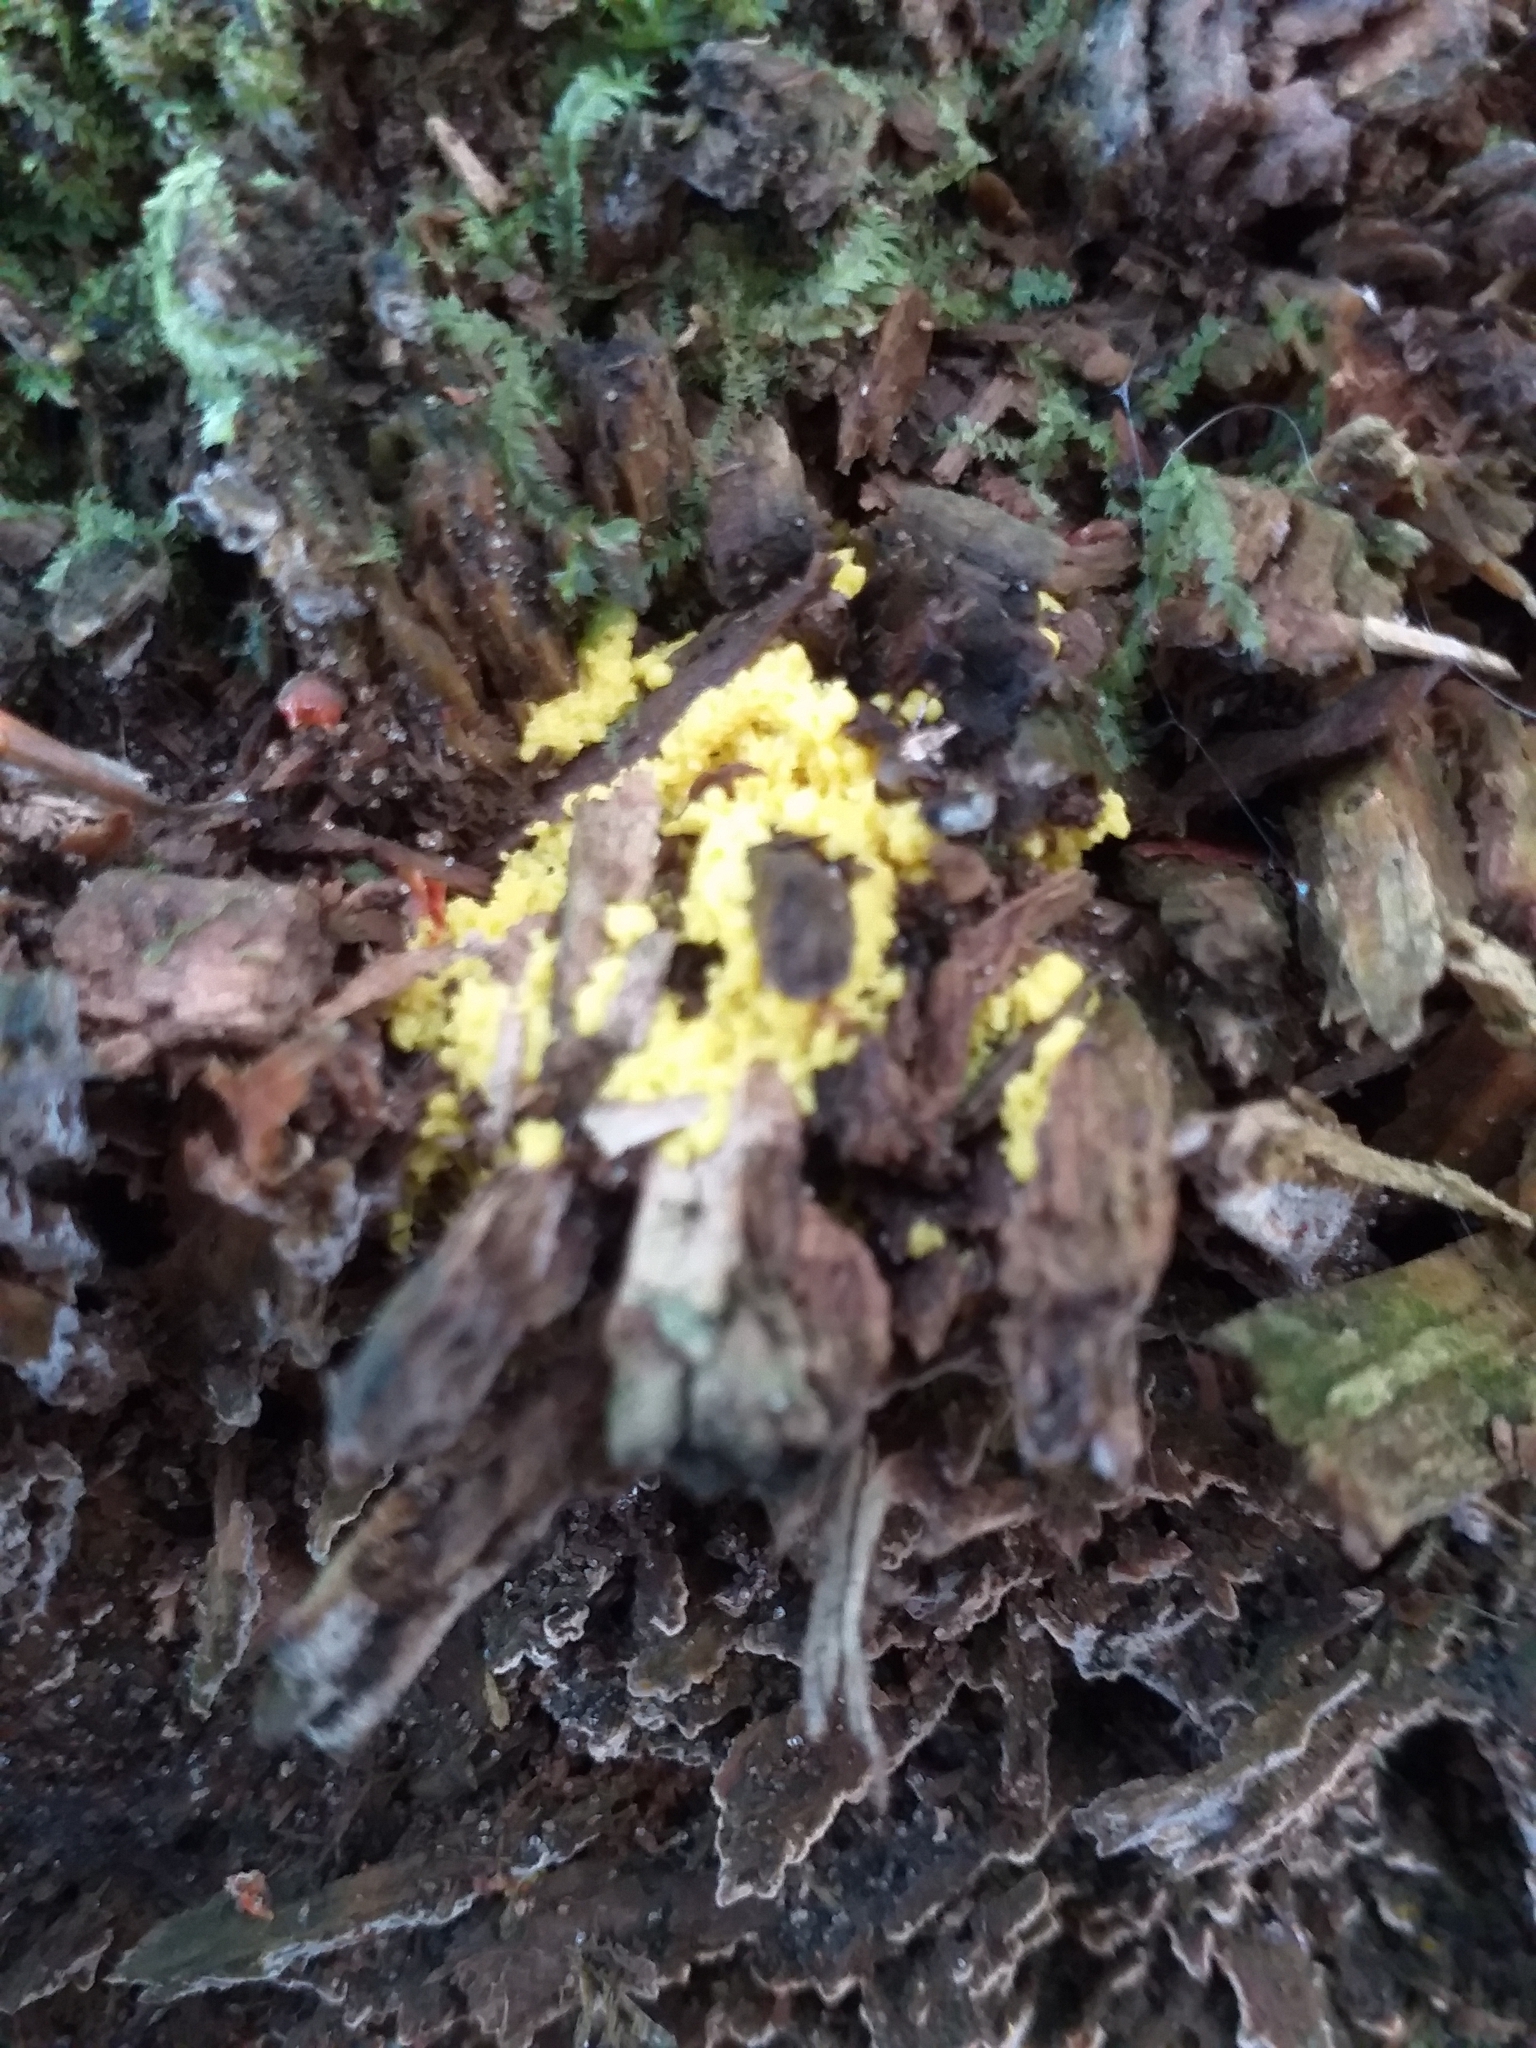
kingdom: Protozoa
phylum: Mycetozoa
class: Myxomycetes
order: Physarales
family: Physaraceae
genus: Fuligo
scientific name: Fuligo septica
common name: Dog vomit slime mold
